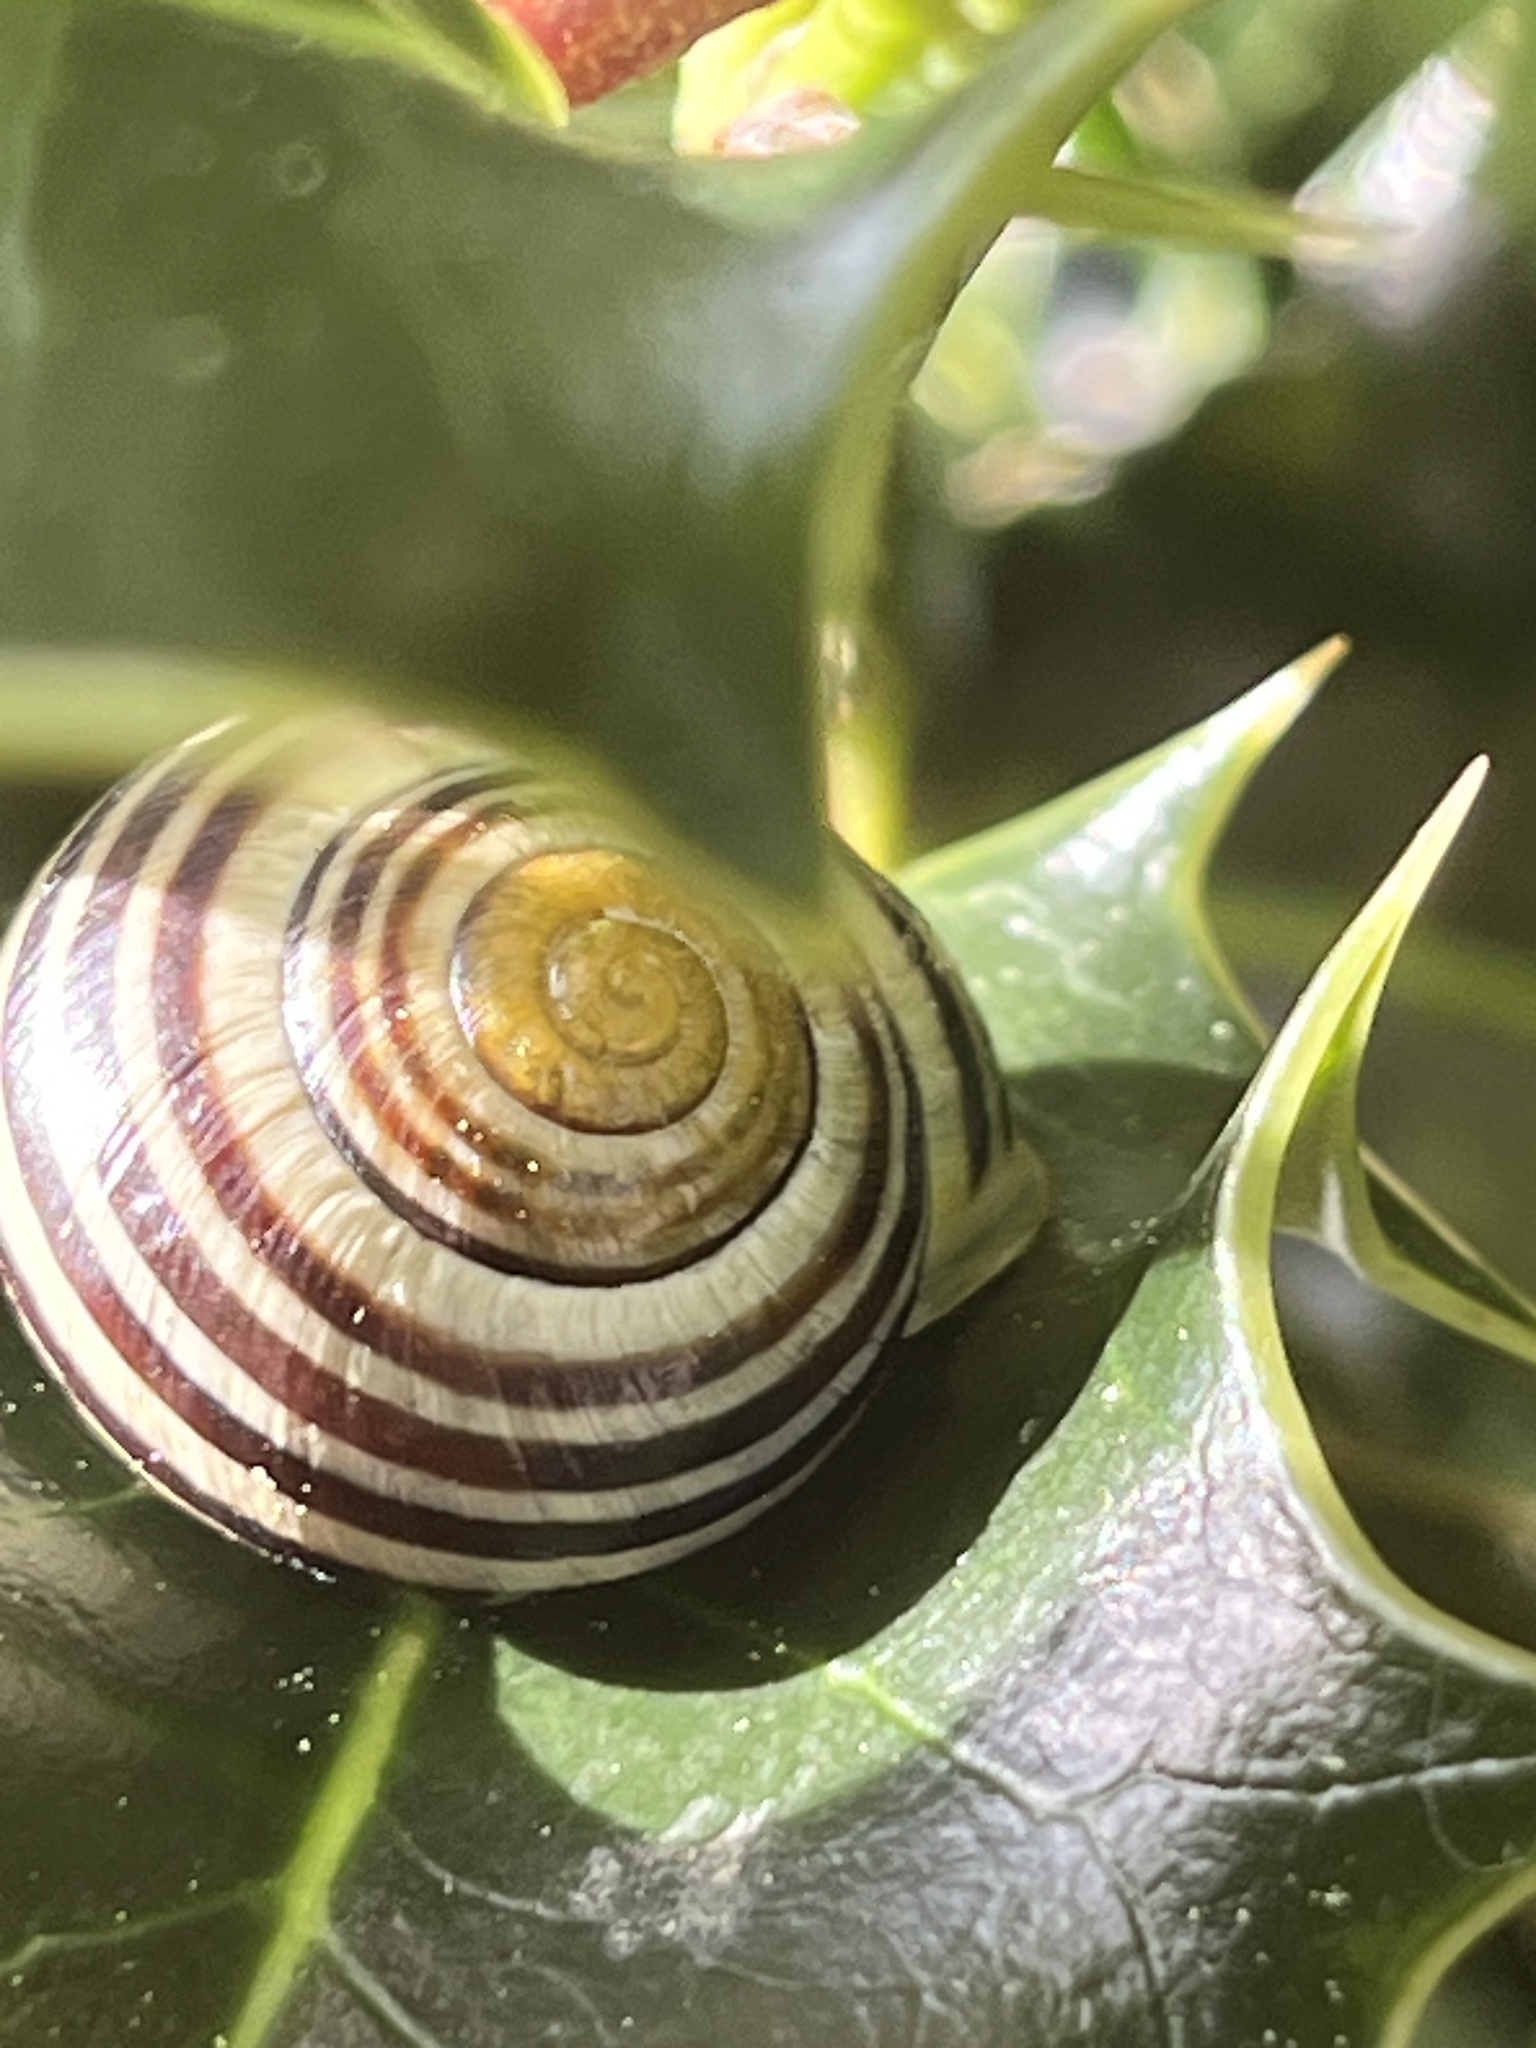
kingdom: Animalia
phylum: Mollusca
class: Gastropoda
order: Stylommatophora
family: Helicidae
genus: Cepaea
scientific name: Cepaea hortensis
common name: White-lip gardensnail
